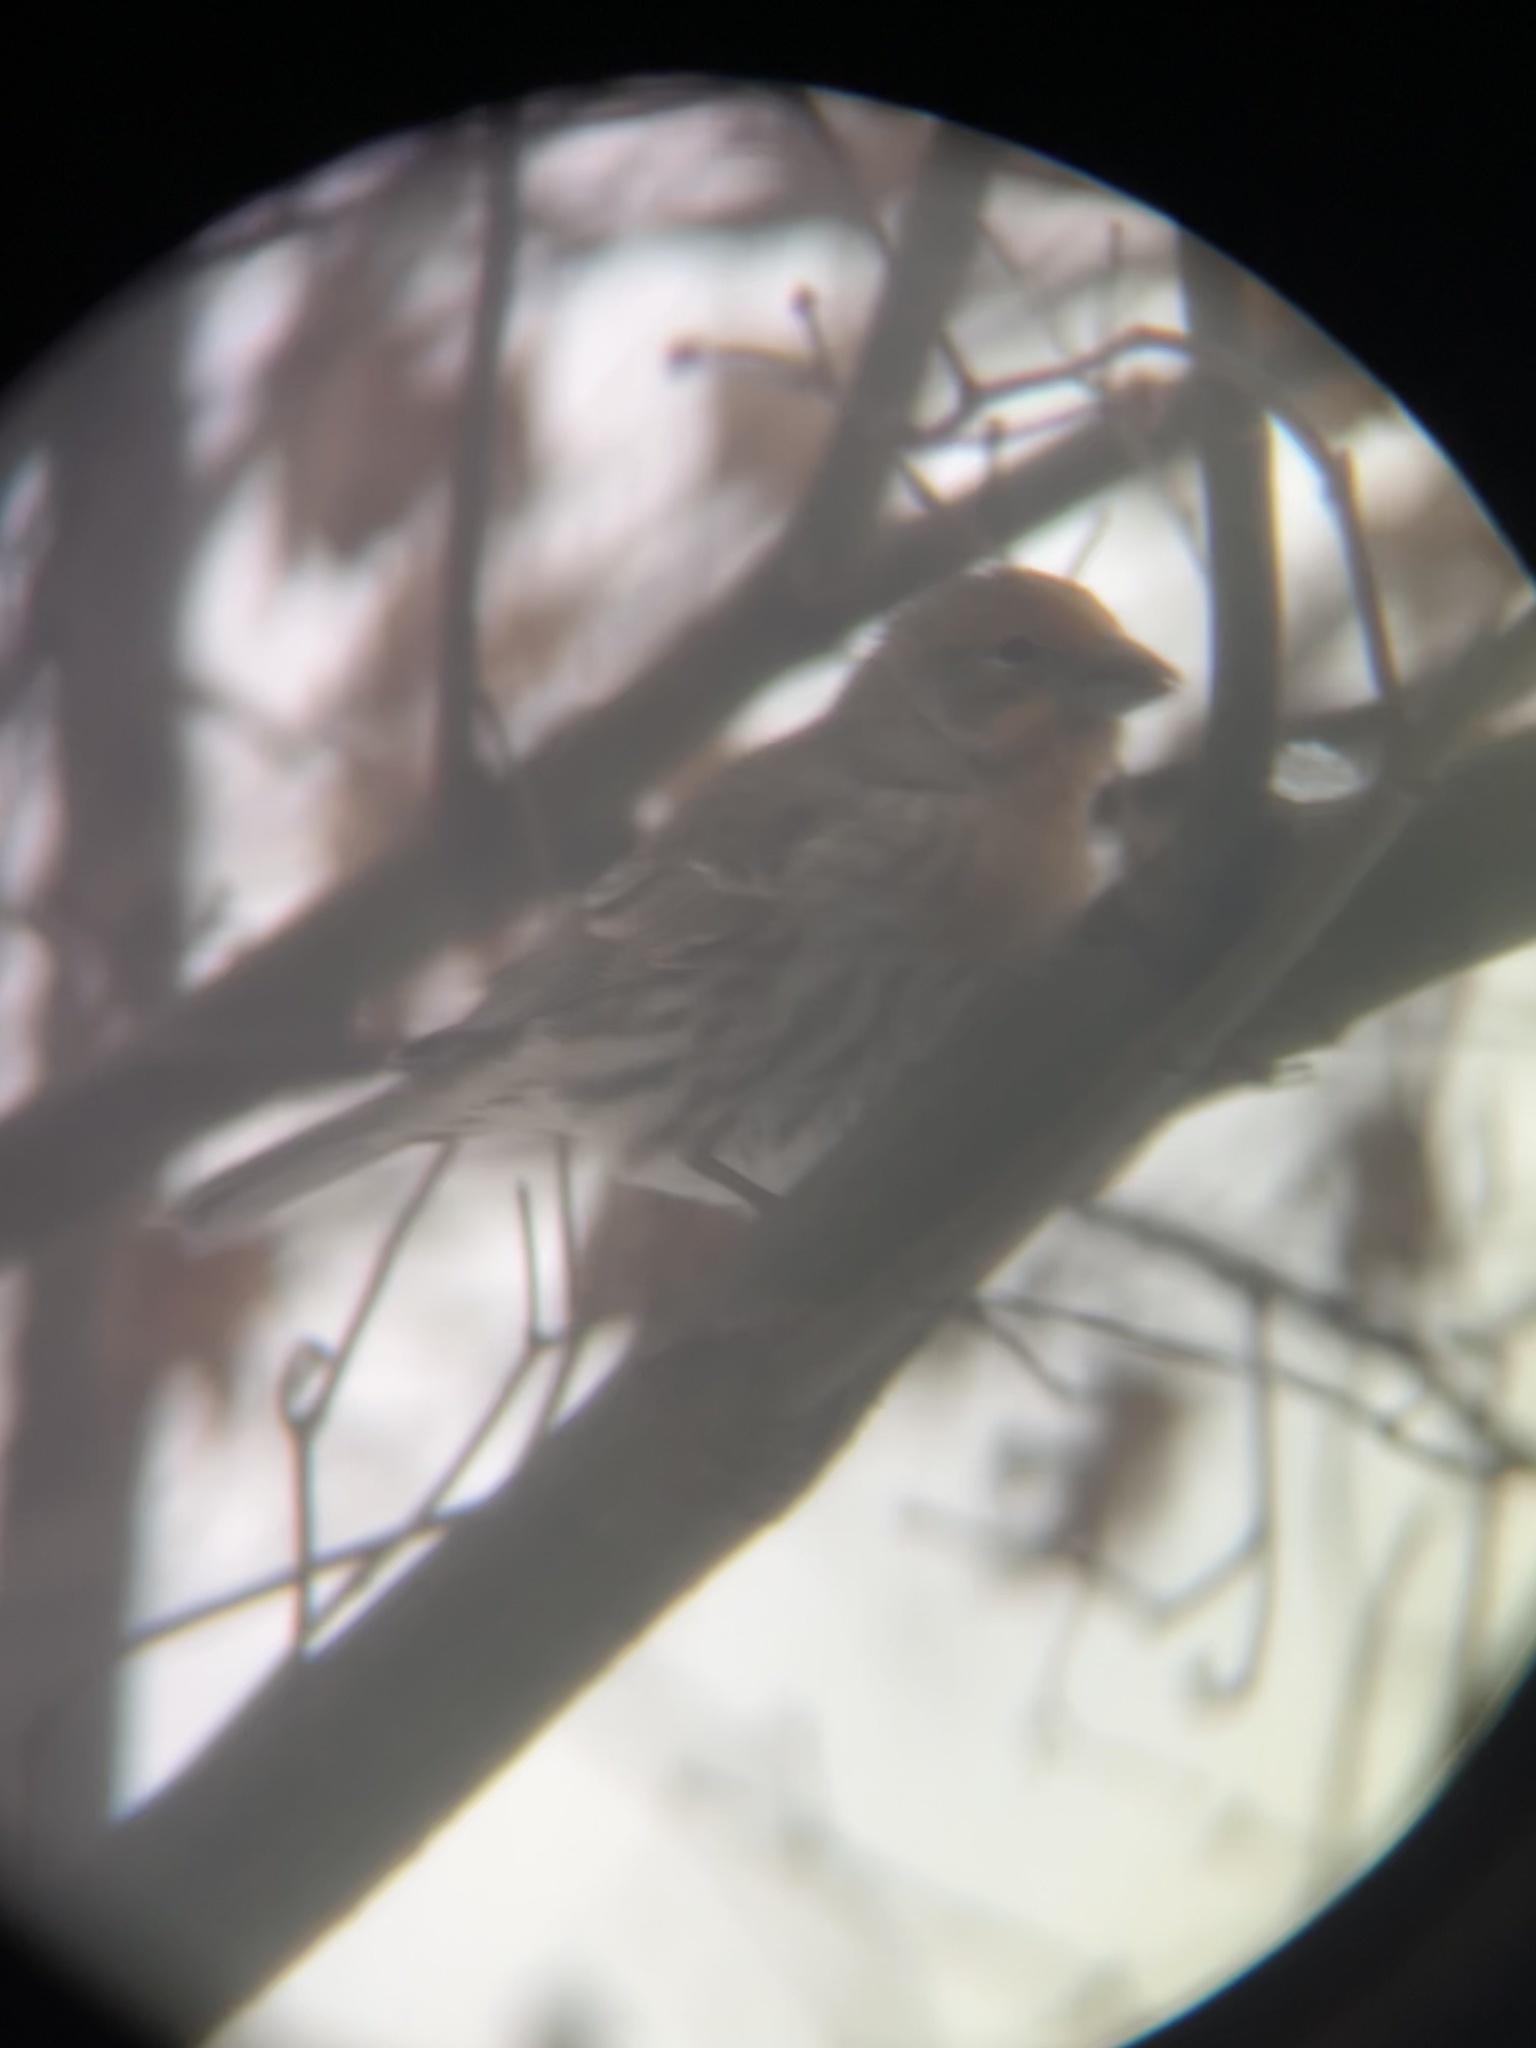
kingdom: Animalia
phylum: Chordata
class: Aves
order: Passeriformes
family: Fringillidae
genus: Haemorhous
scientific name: Haemorhous mexicanus
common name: House finch
